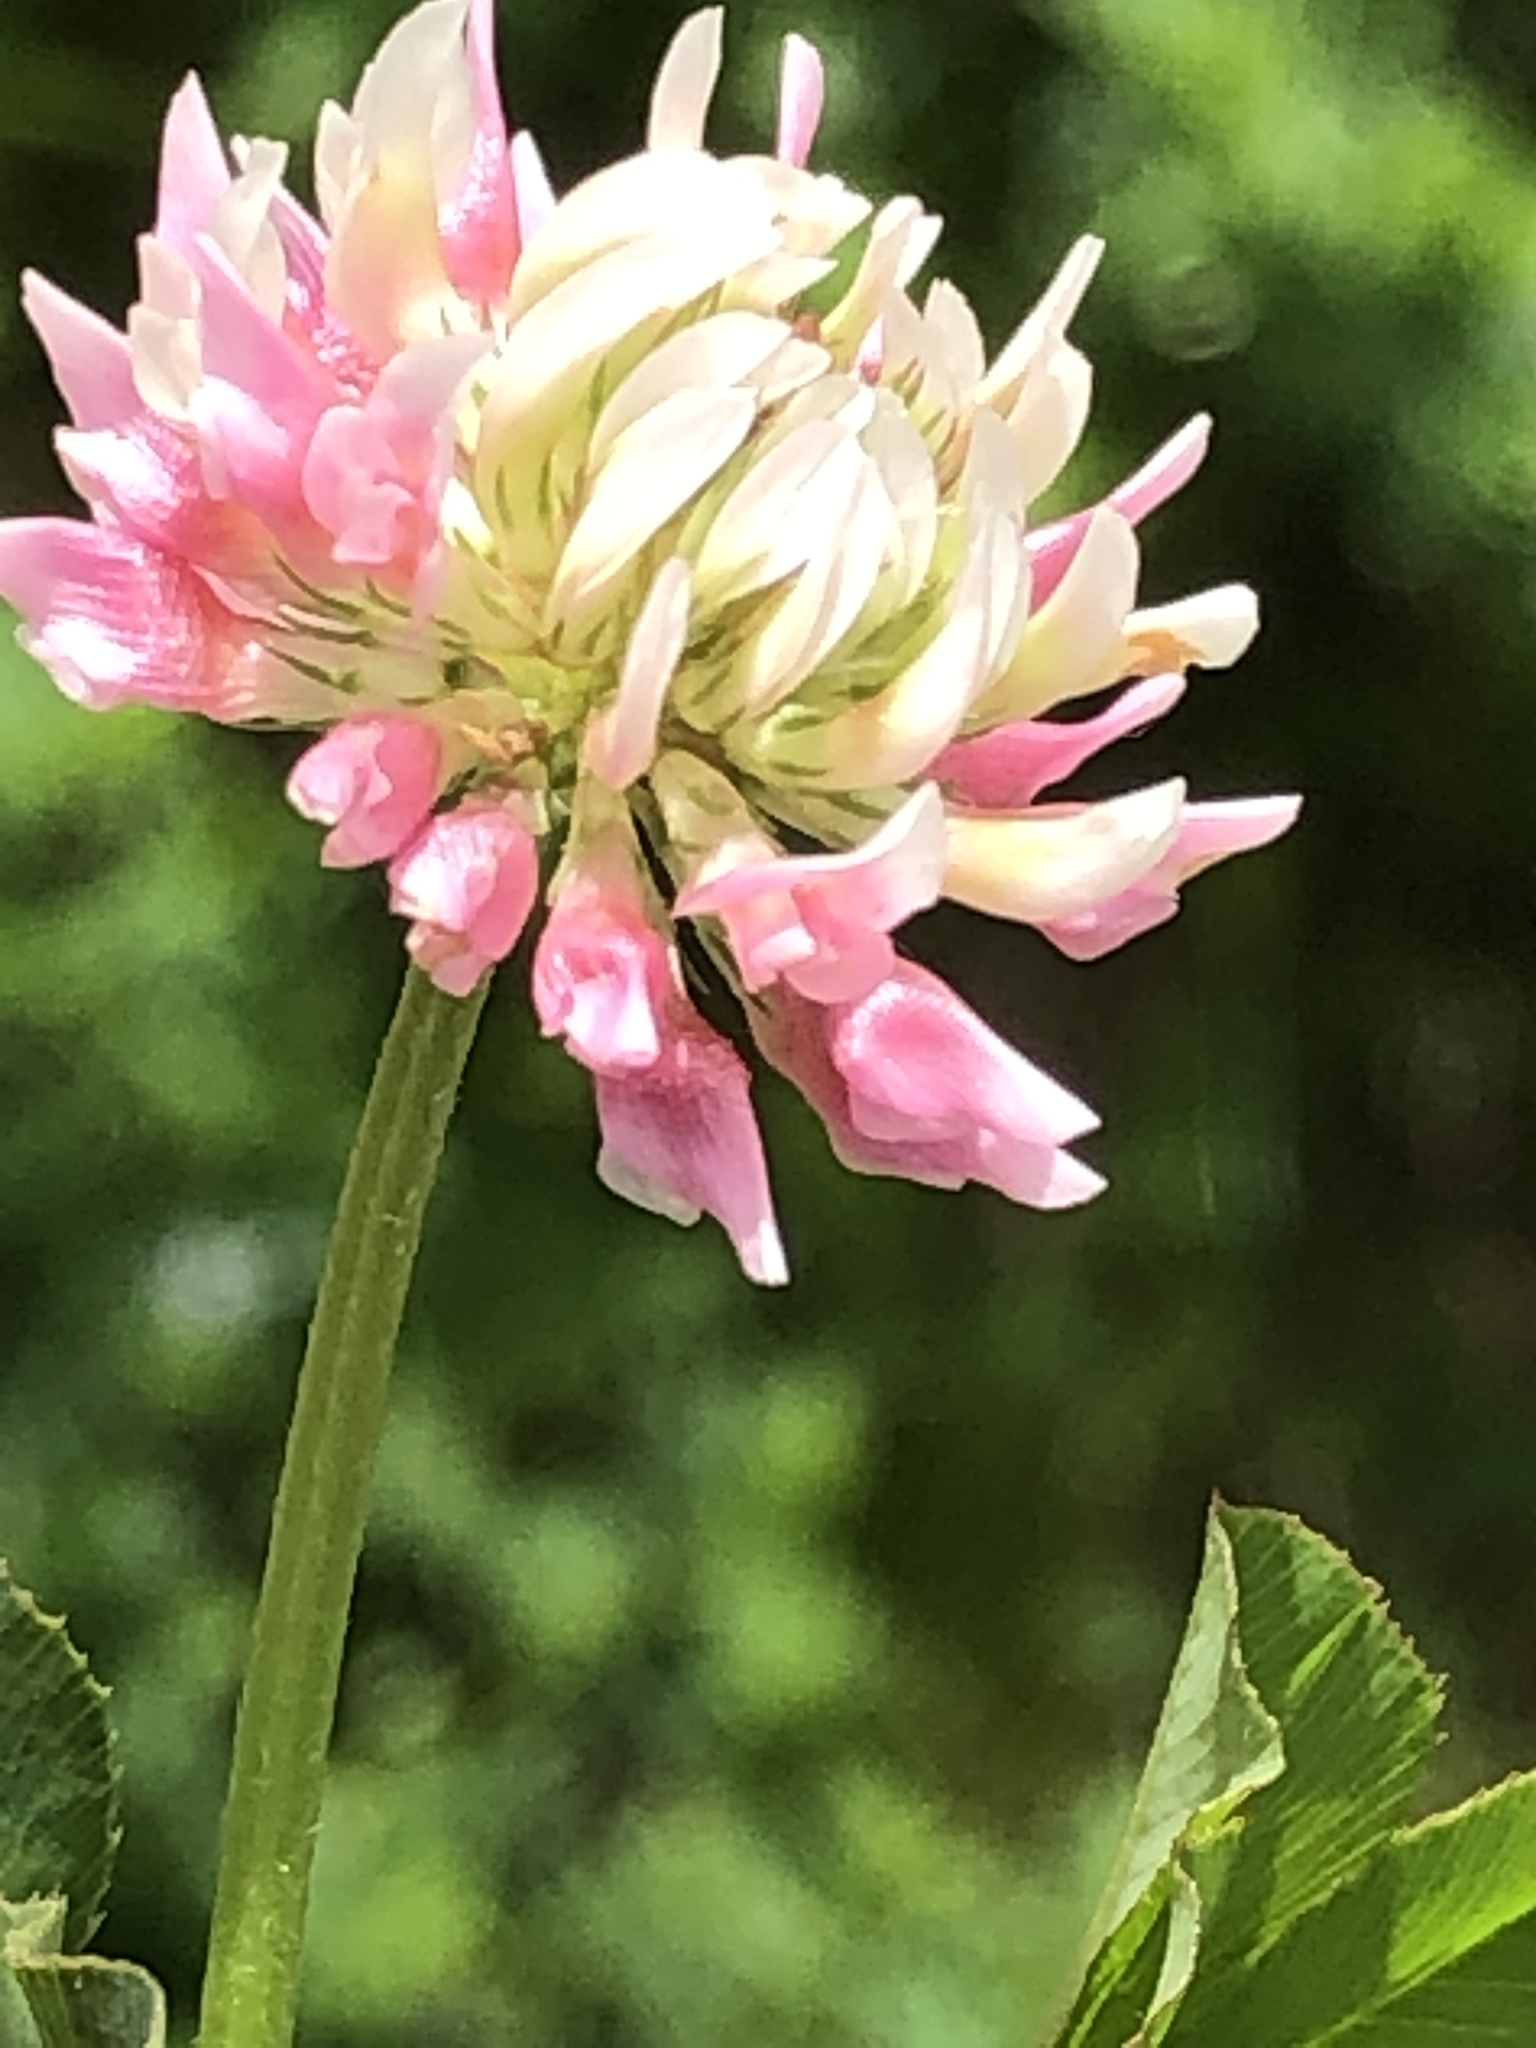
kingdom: Plantae
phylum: Tracheophyta
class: Magnoliopsida
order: Fabales
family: Fabaceae
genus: Trifolium
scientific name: Trifolium hybridum
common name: Alsike clover
